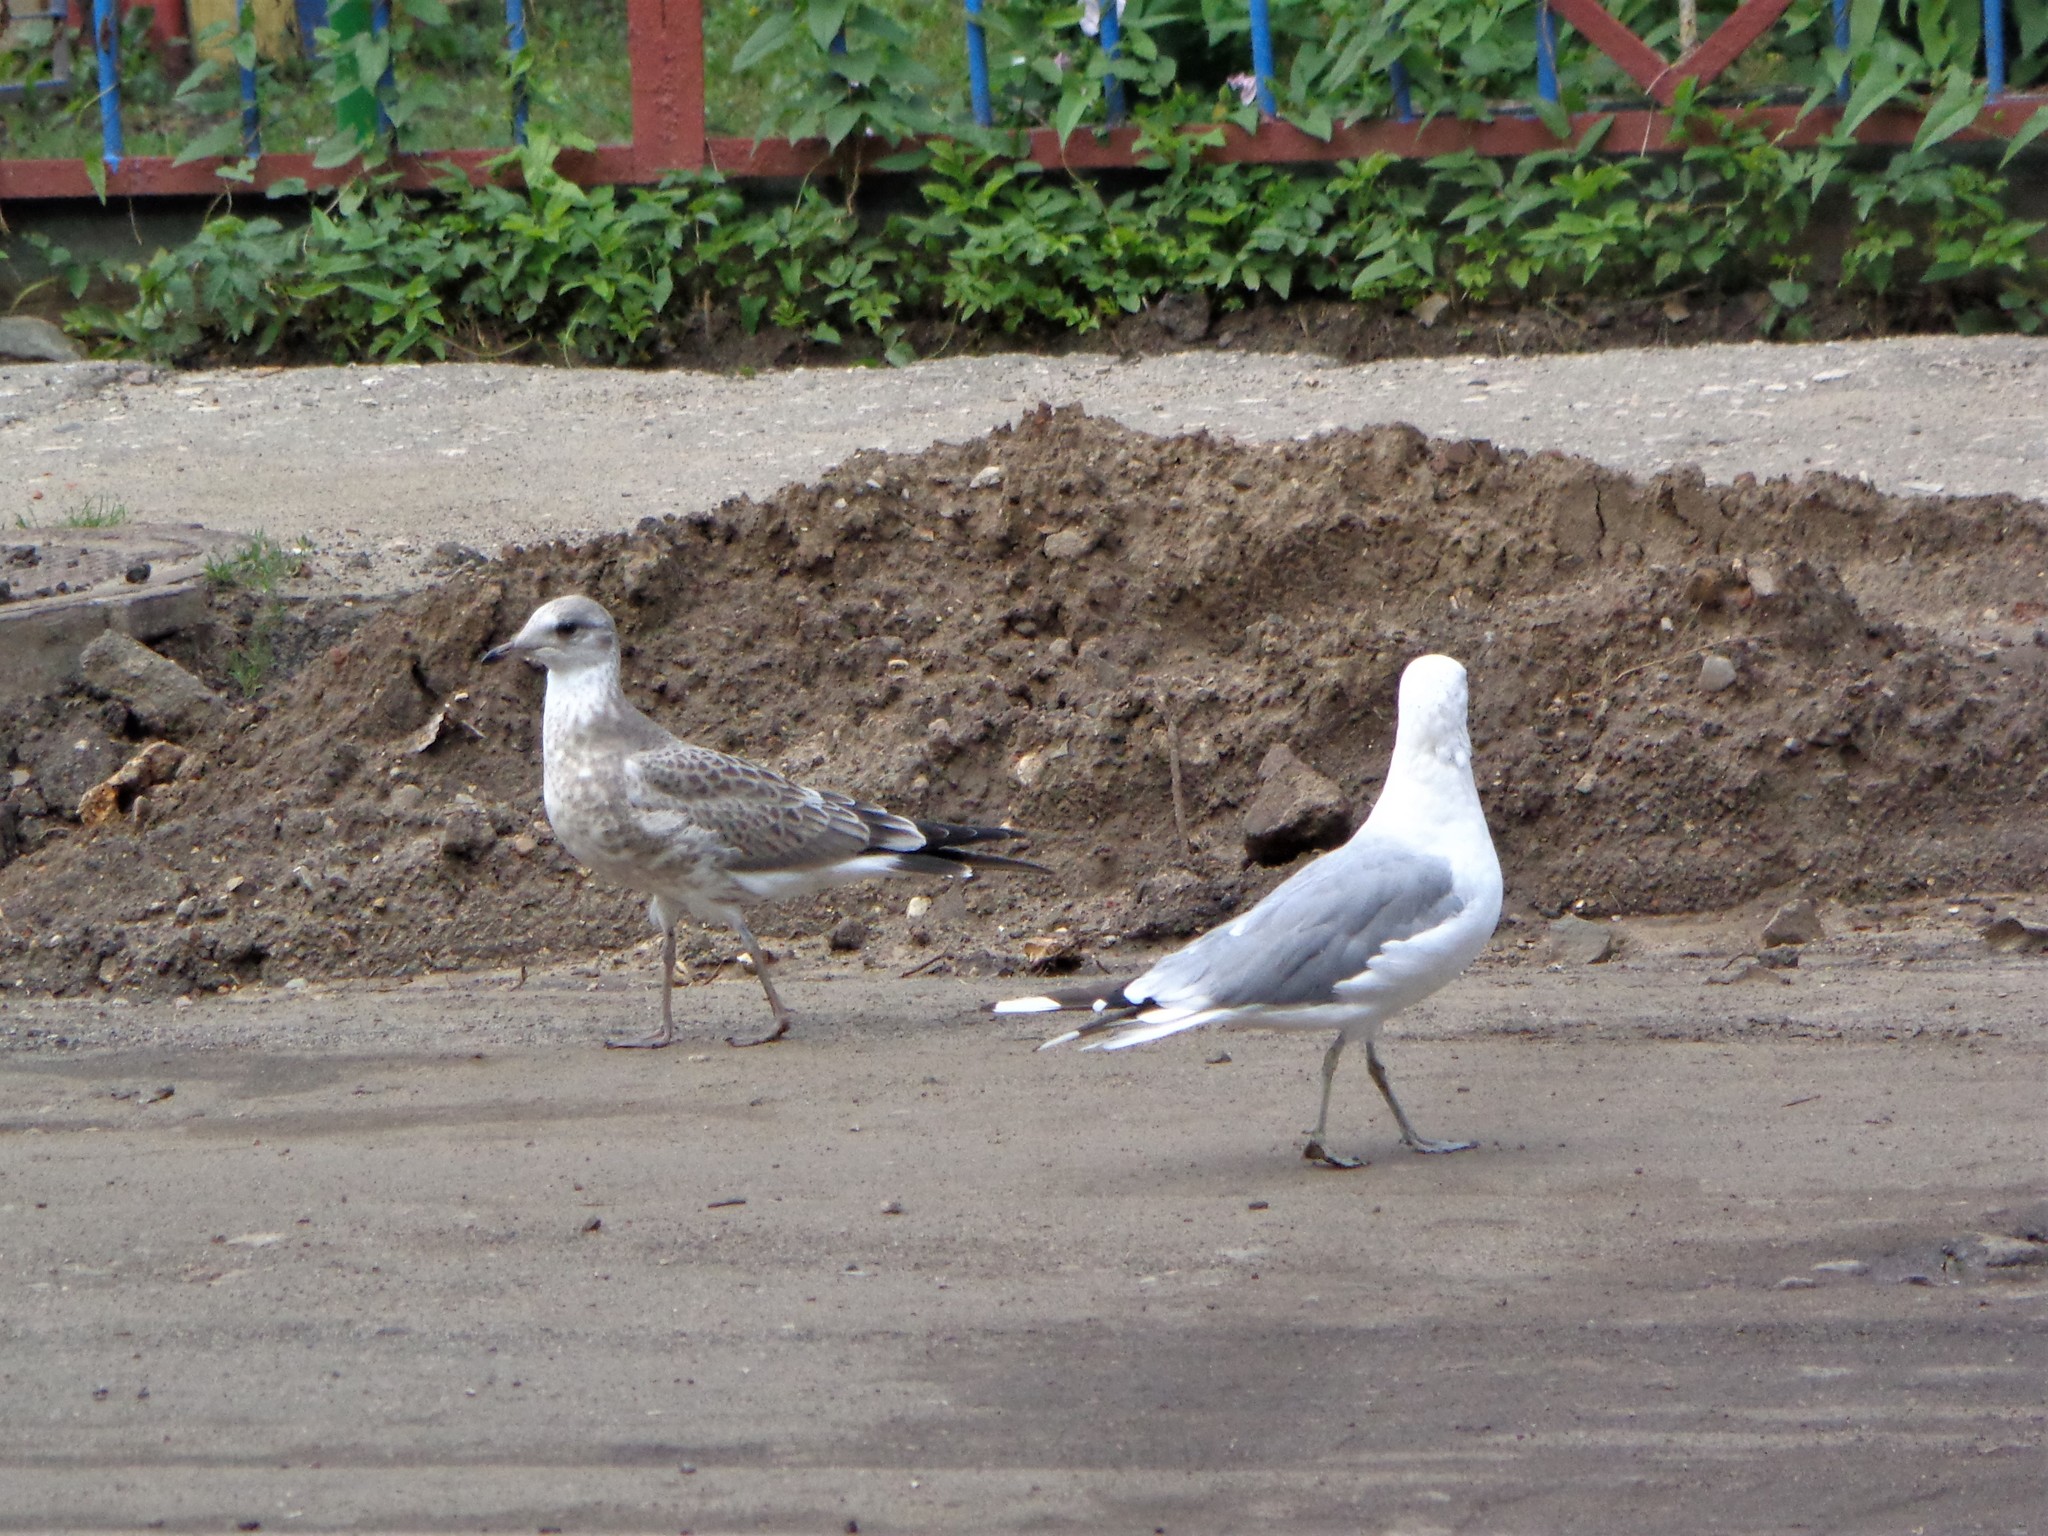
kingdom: Animalia
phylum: Chordata
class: Aves
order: Charadriiformes
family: Laridae
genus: Larus
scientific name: Larus canus
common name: Mew gull
